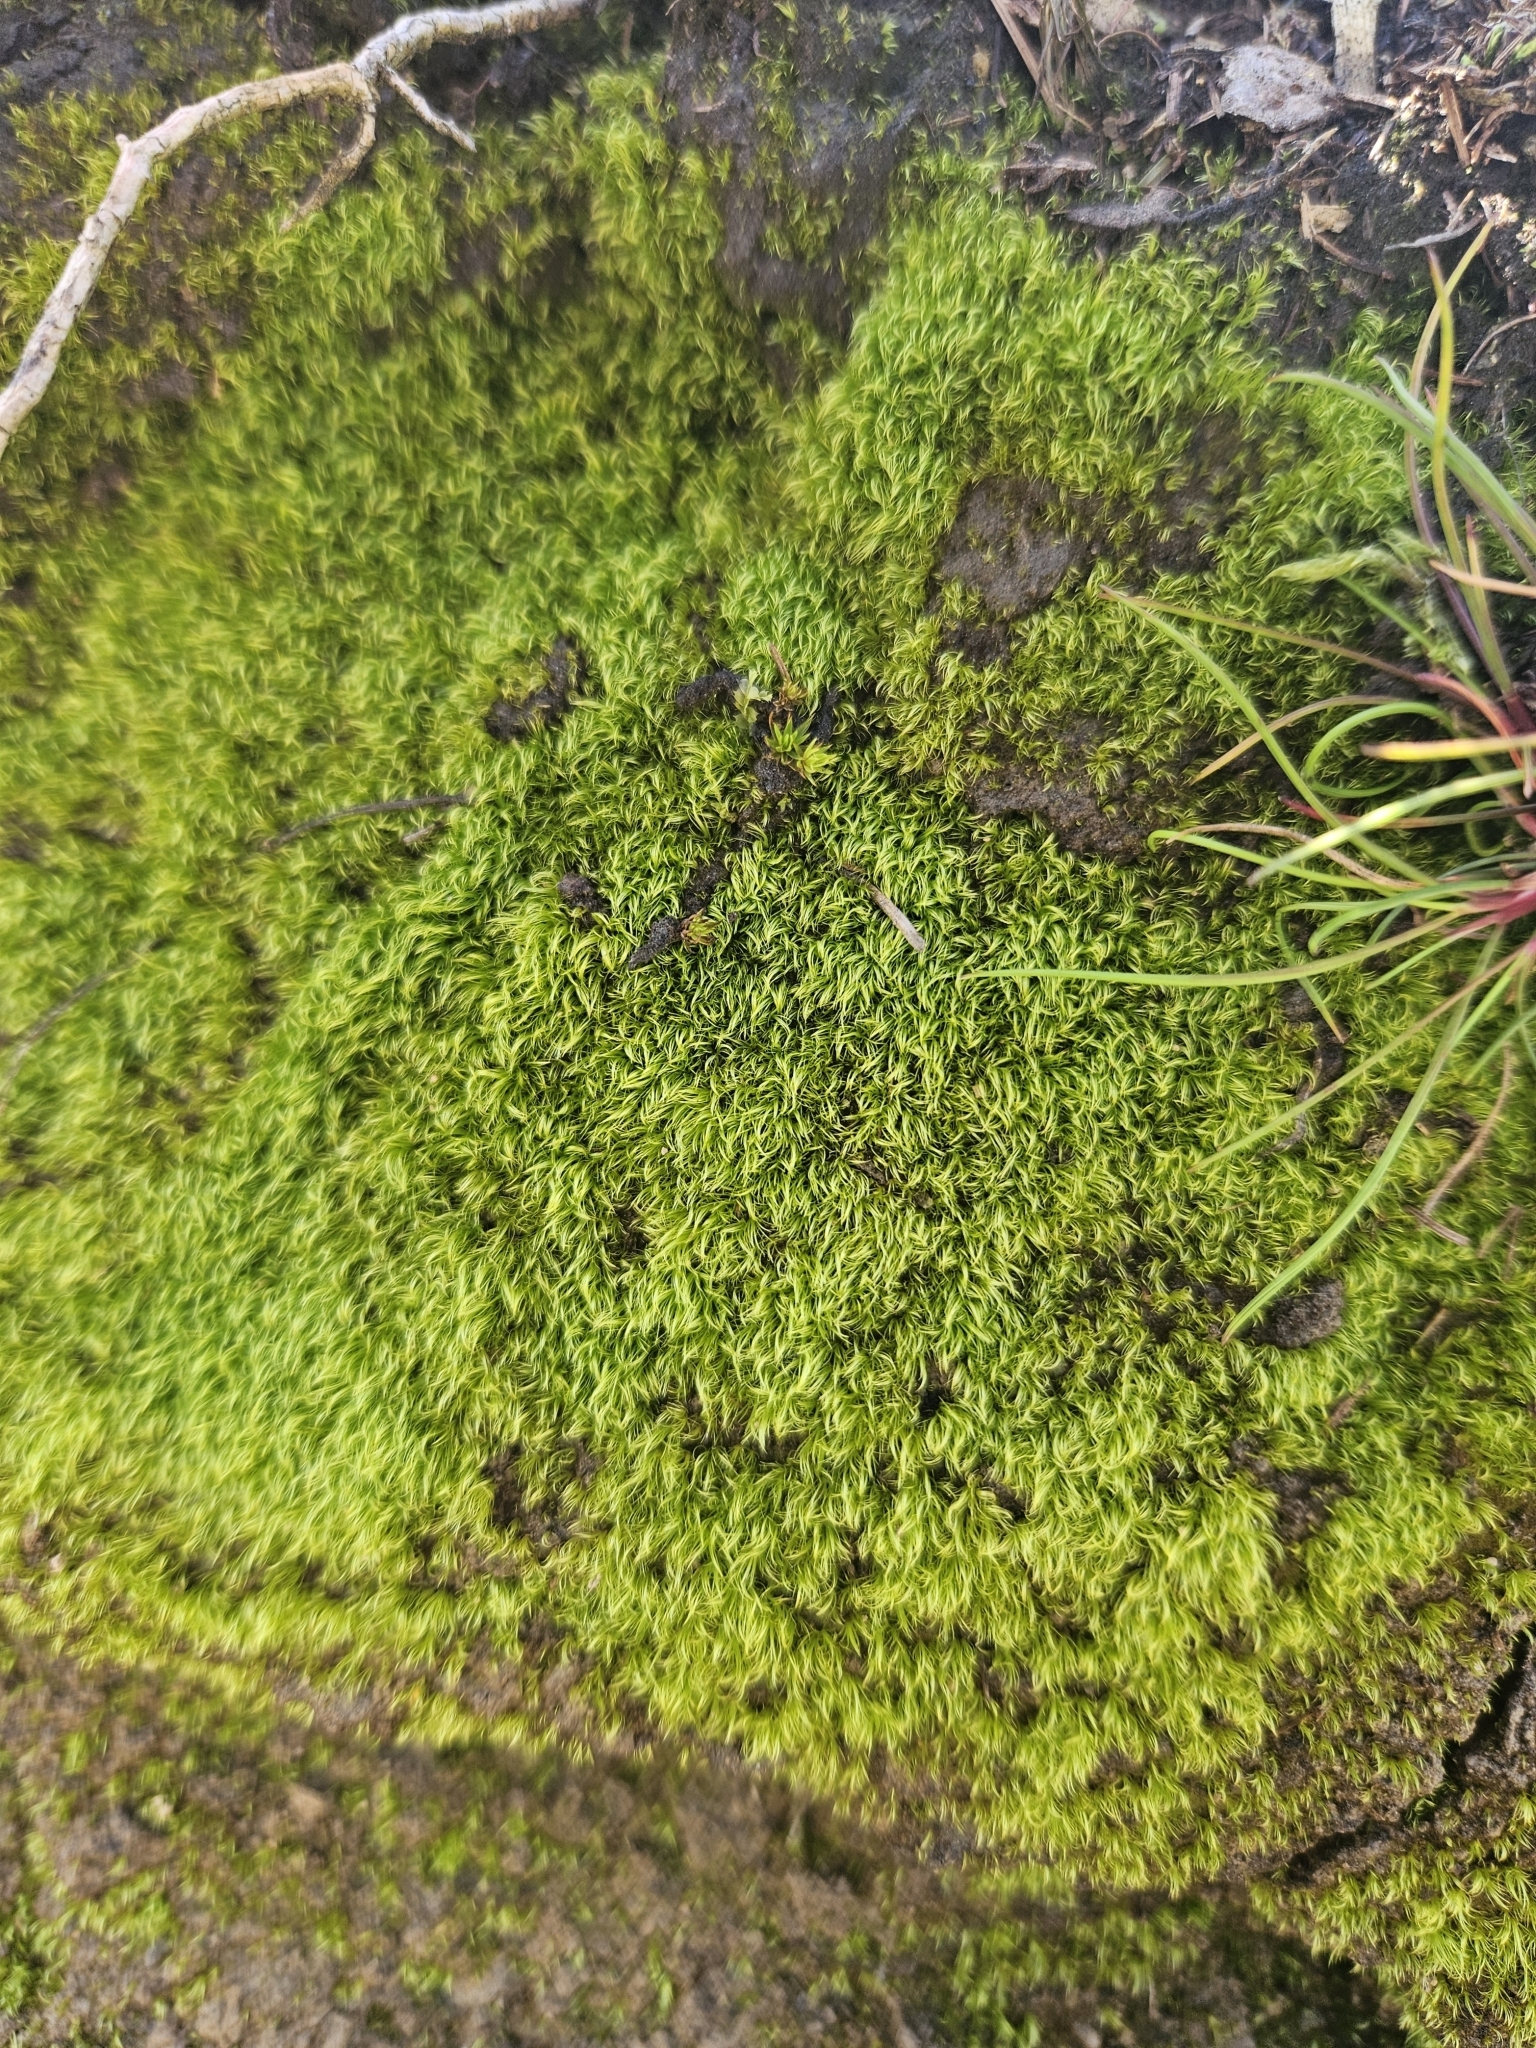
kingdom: Plantae
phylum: Bryophyta
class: Bryopsida
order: Dicranales
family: Dicranellaceae
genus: Dicranella
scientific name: Dicranella heteromalla
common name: Silky forklet moss
